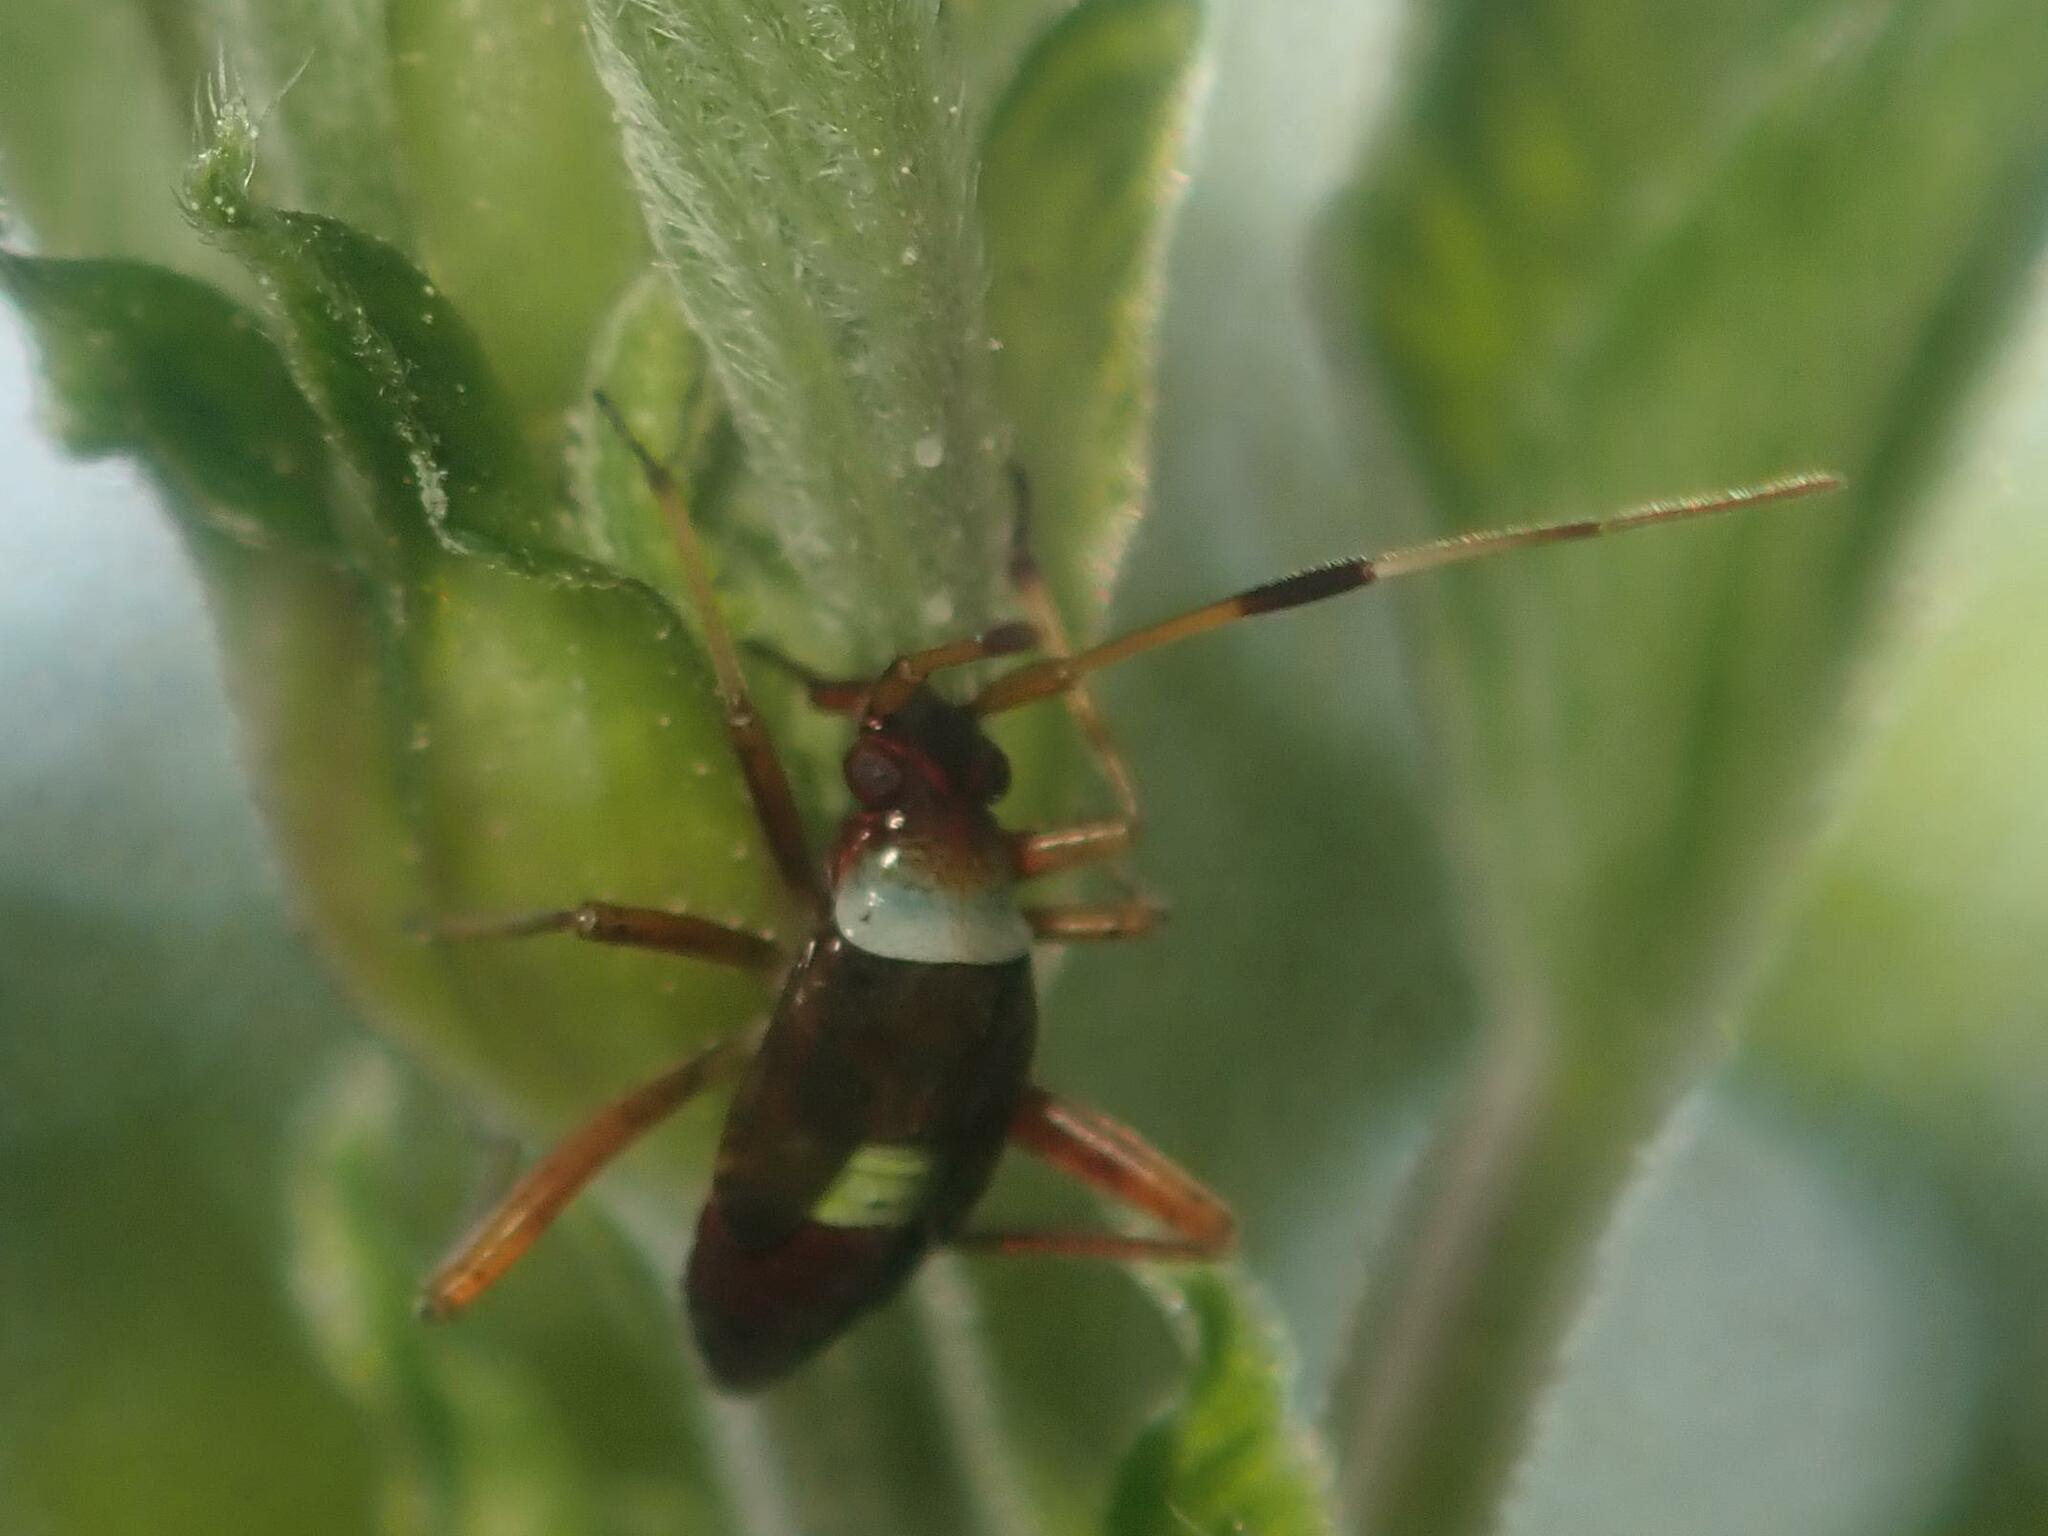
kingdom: Animalia
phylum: Arthropoda
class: Insecta
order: Hemiptera
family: Miridae
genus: Closterotomus
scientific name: Closterotomus biclavatus
